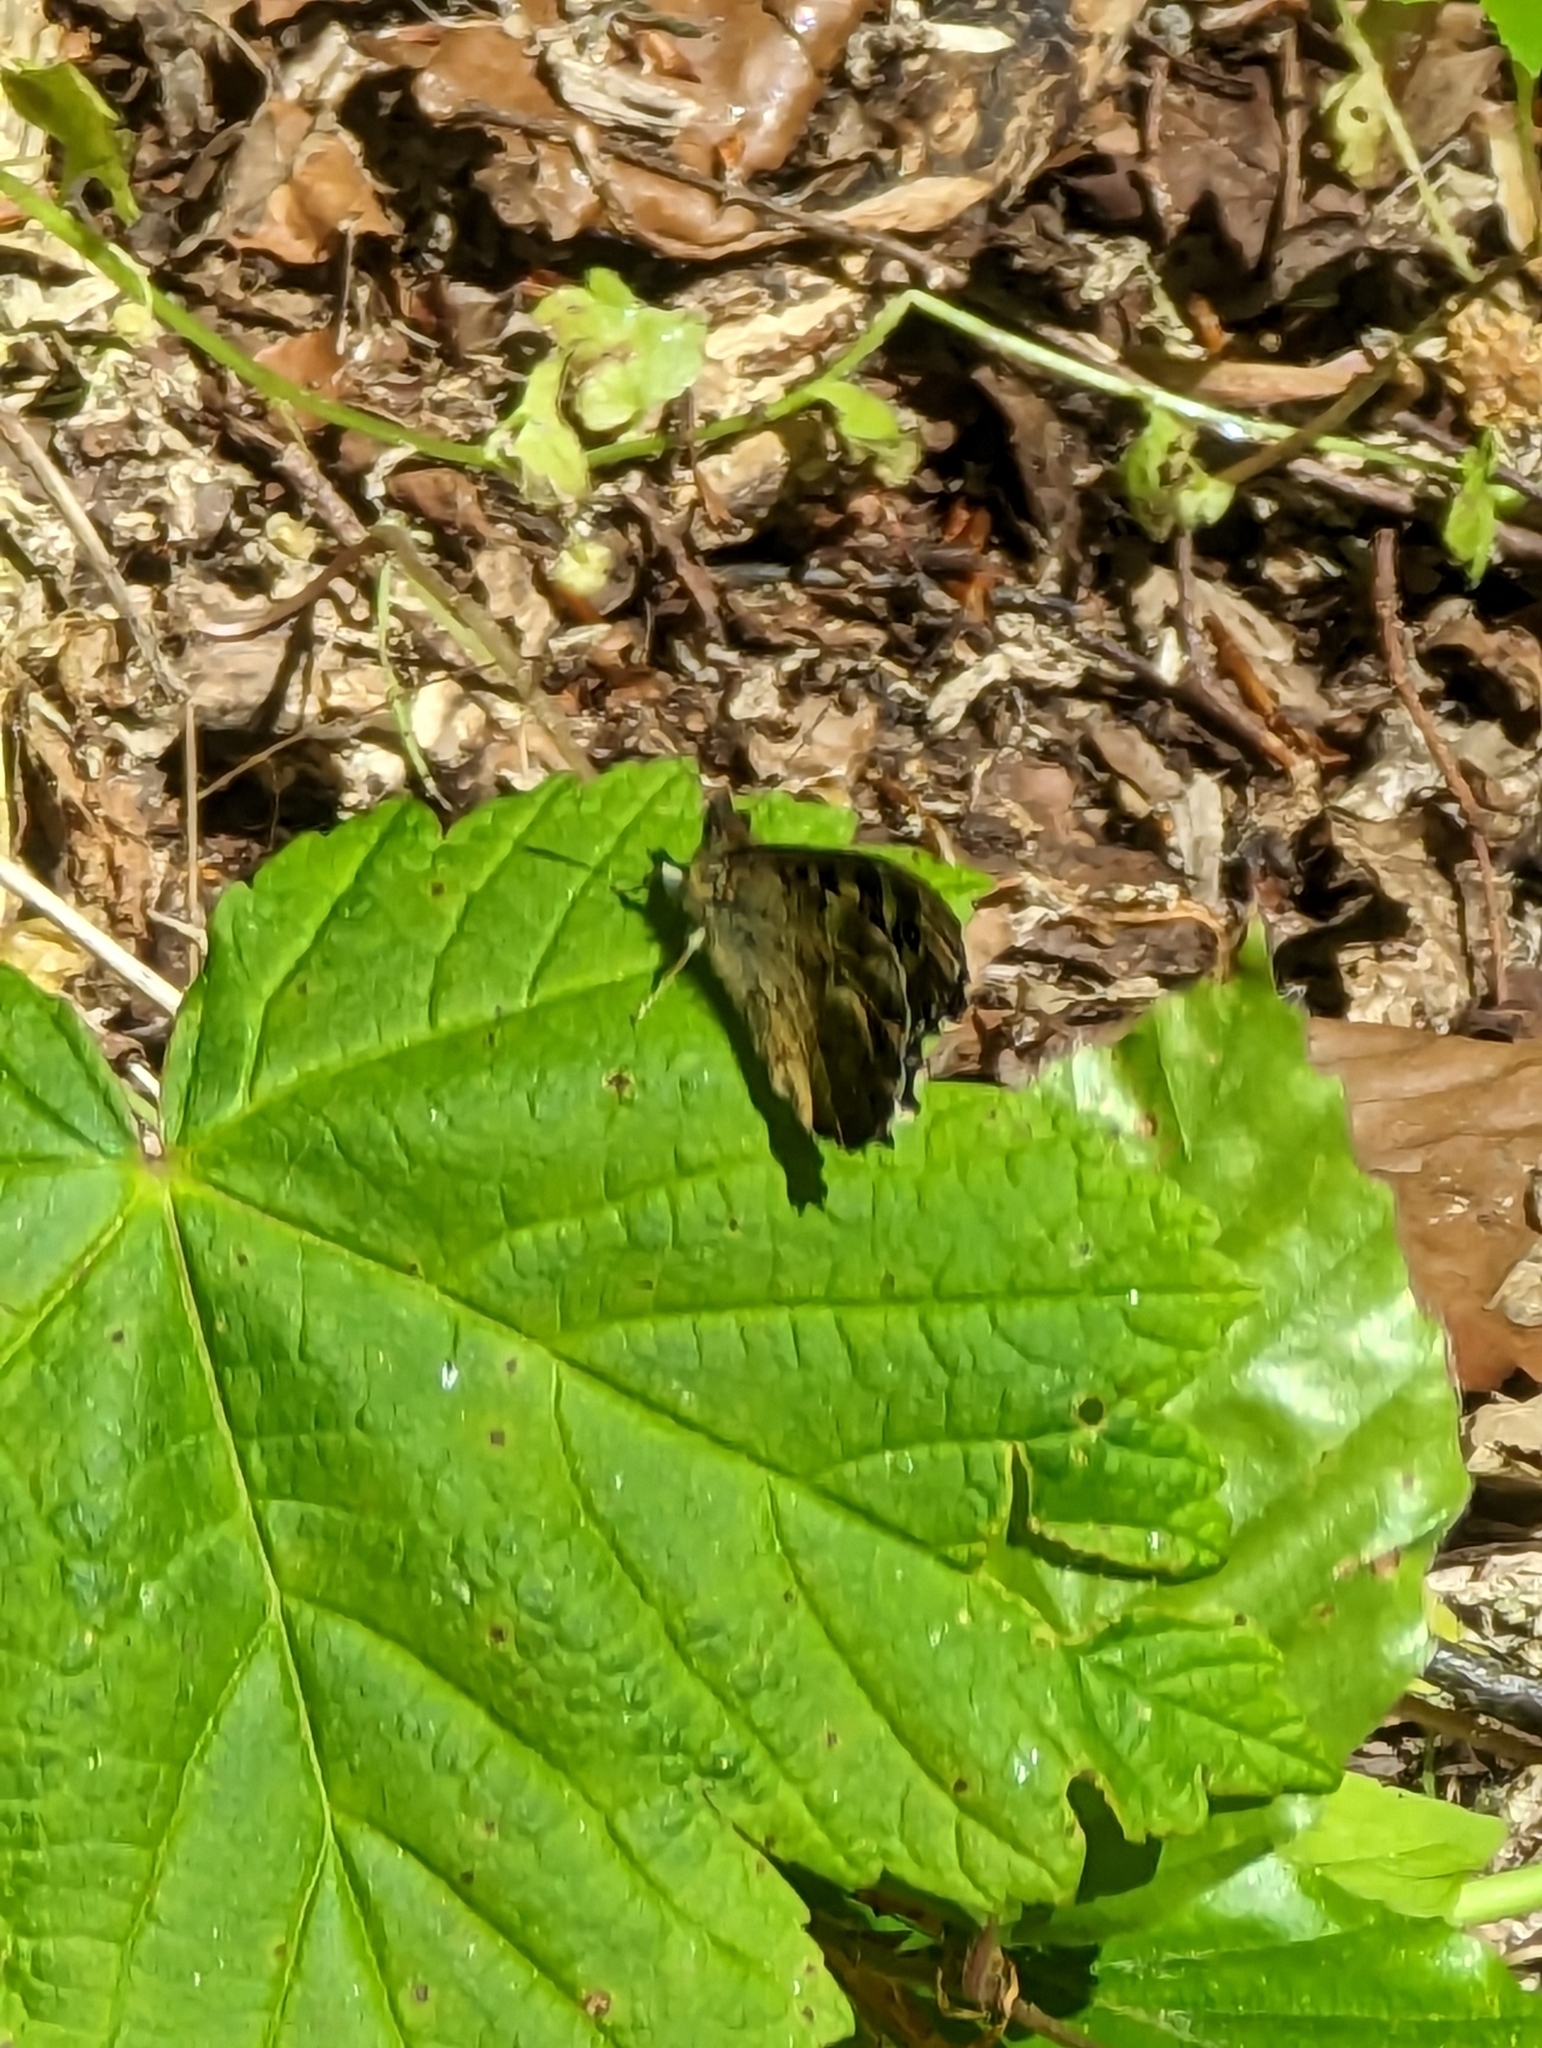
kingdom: Animalia
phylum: Arthropoda
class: Insecta
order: Lepidoptera
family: Nymphalidae
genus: Pararge
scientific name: Pararge aegeria
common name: Speckled wood
